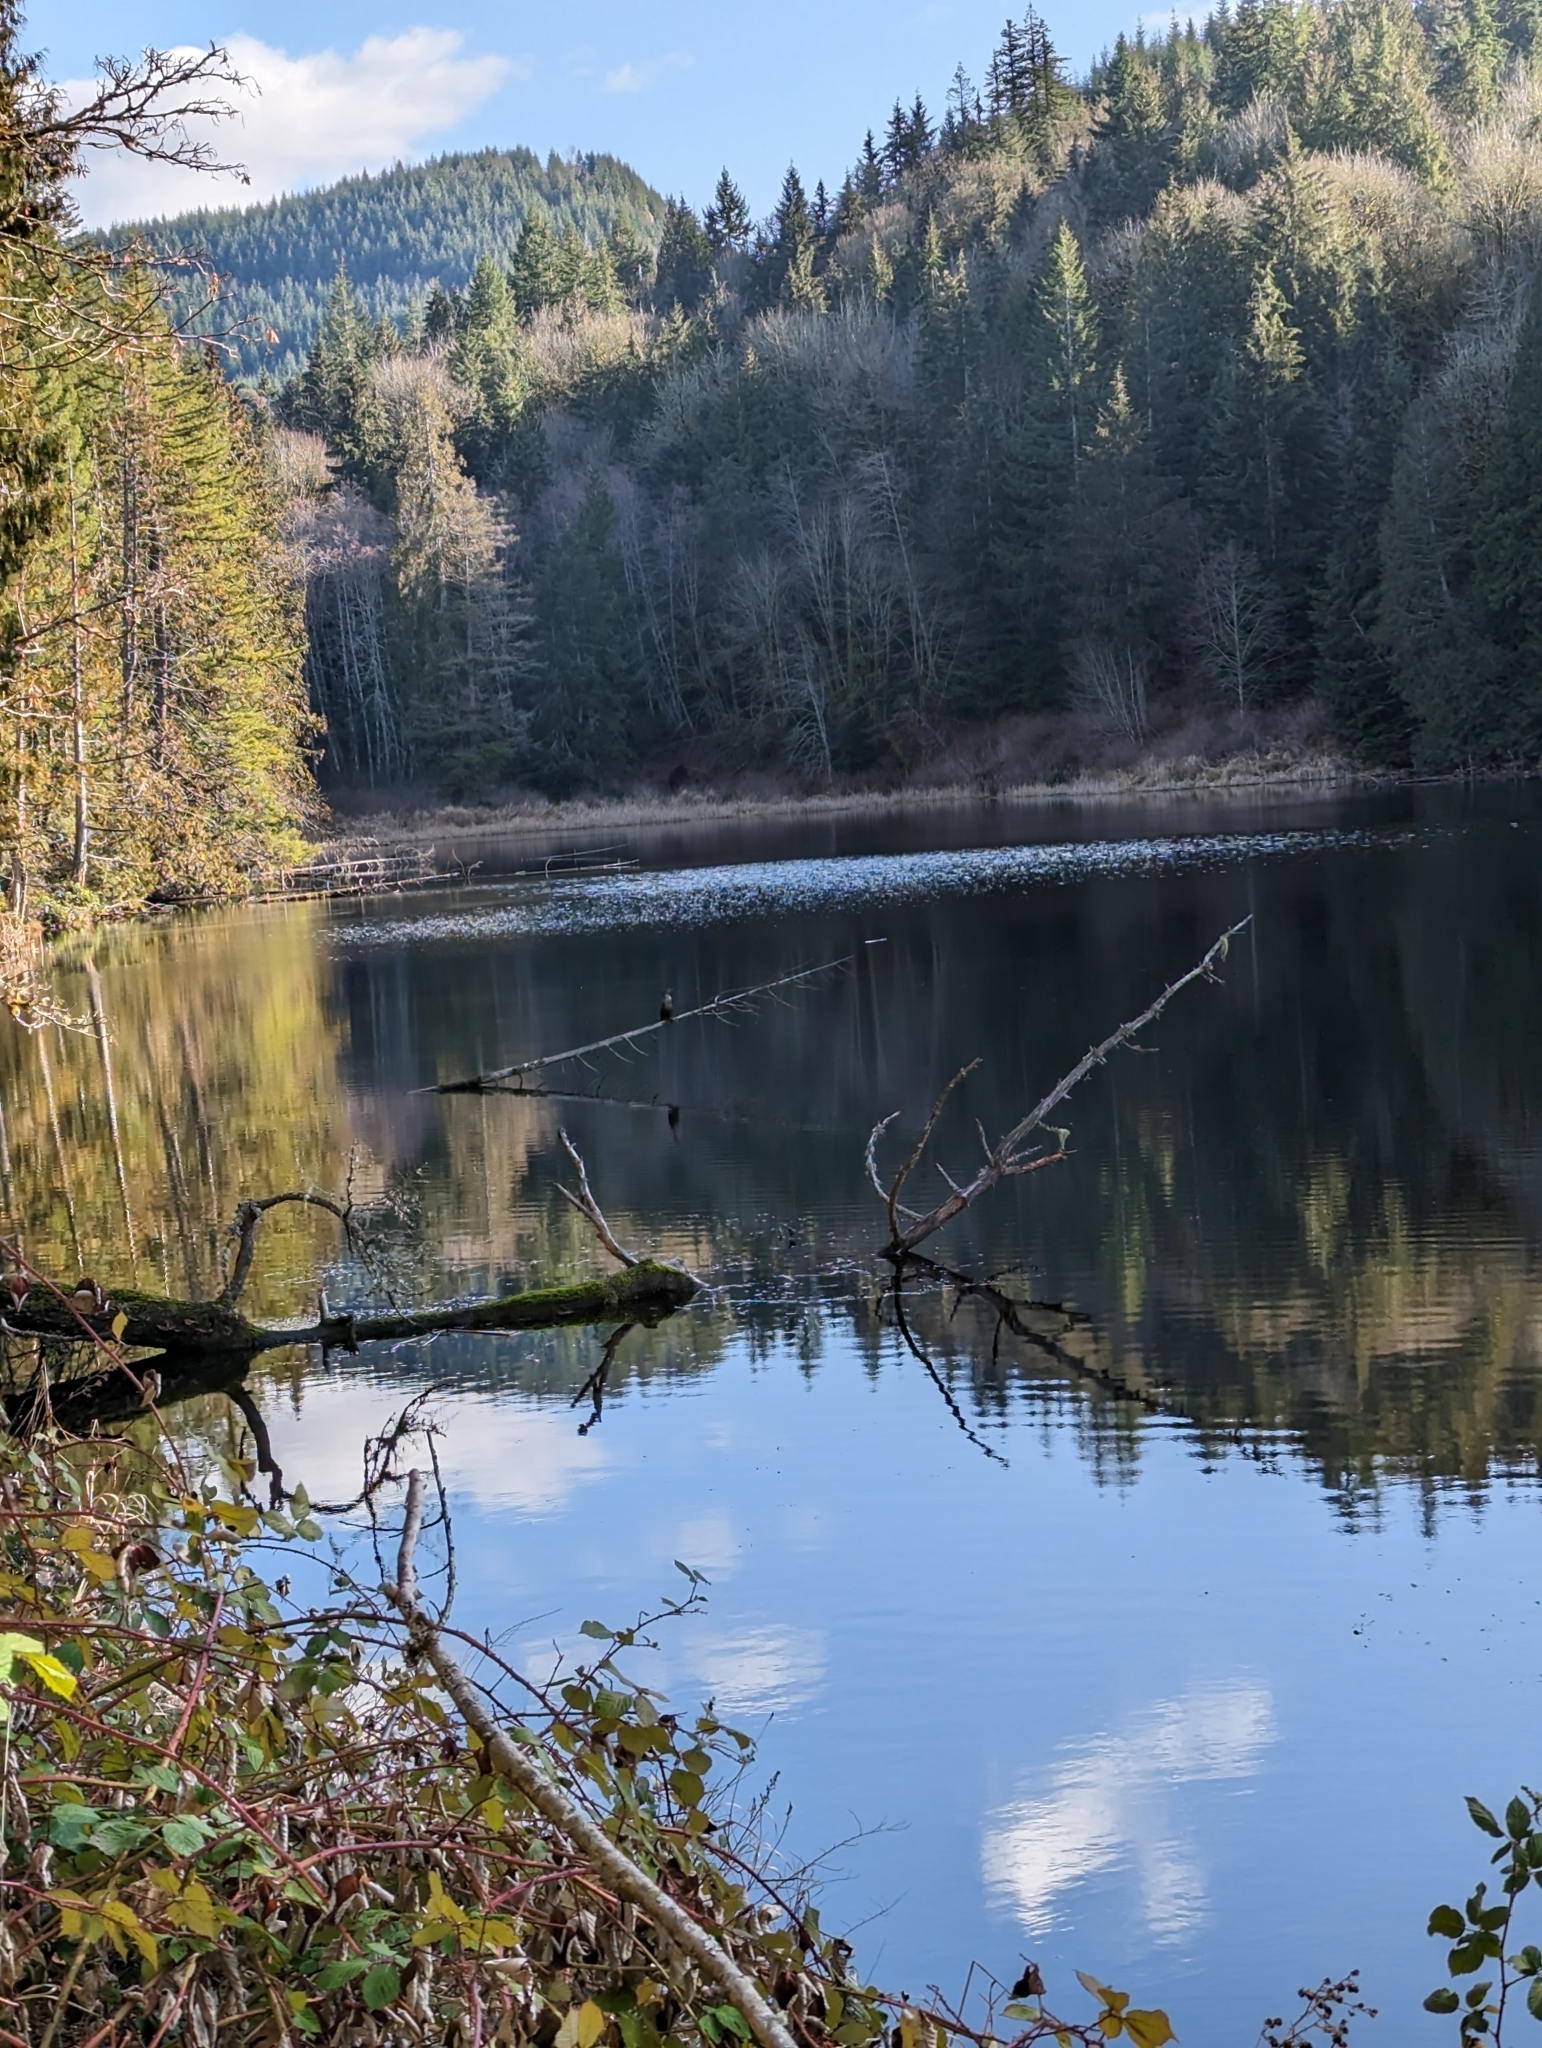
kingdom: Animalia
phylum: Chordata
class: Aves
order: Suliformes
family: Phalacrocoracidae
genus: Phalacrocorax
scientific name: Phalacrocorax auritus
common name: Double-crested cormorant
